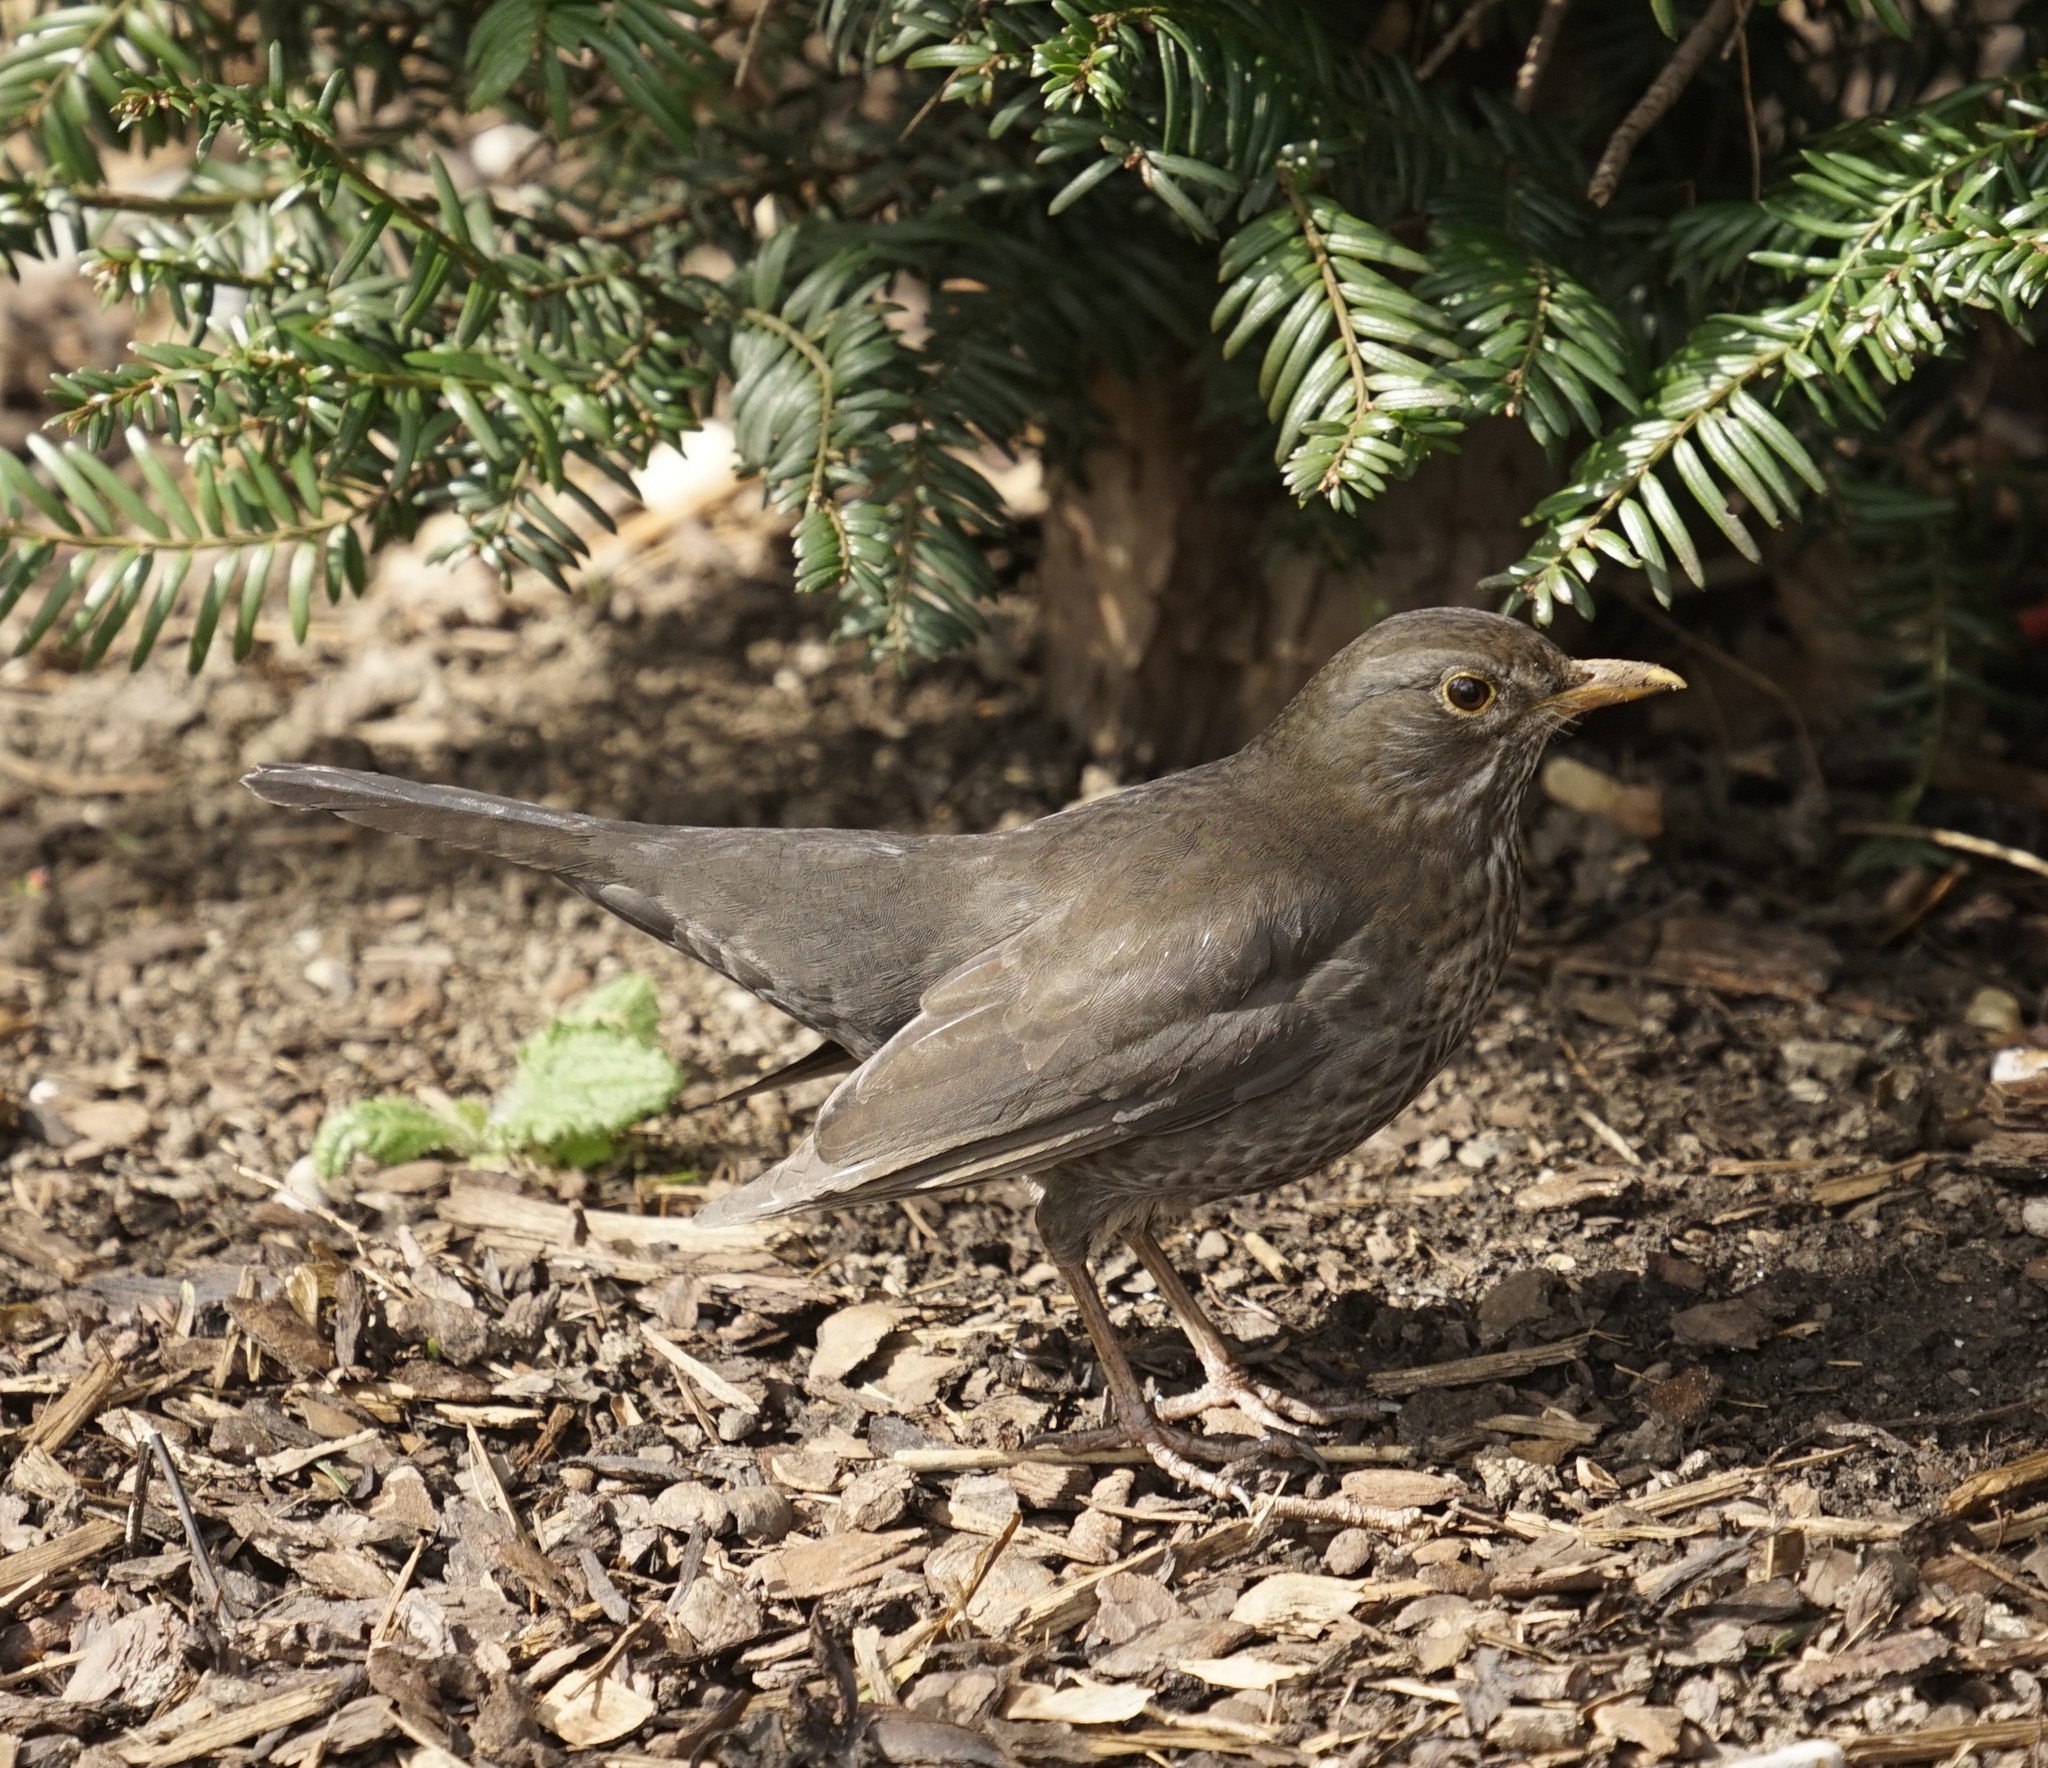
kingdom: Animalia
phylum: Chordata
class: Aves
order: Passeriformes
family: Turdidae
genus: Turdus
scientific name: Turdus merula
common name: Common blackbird
